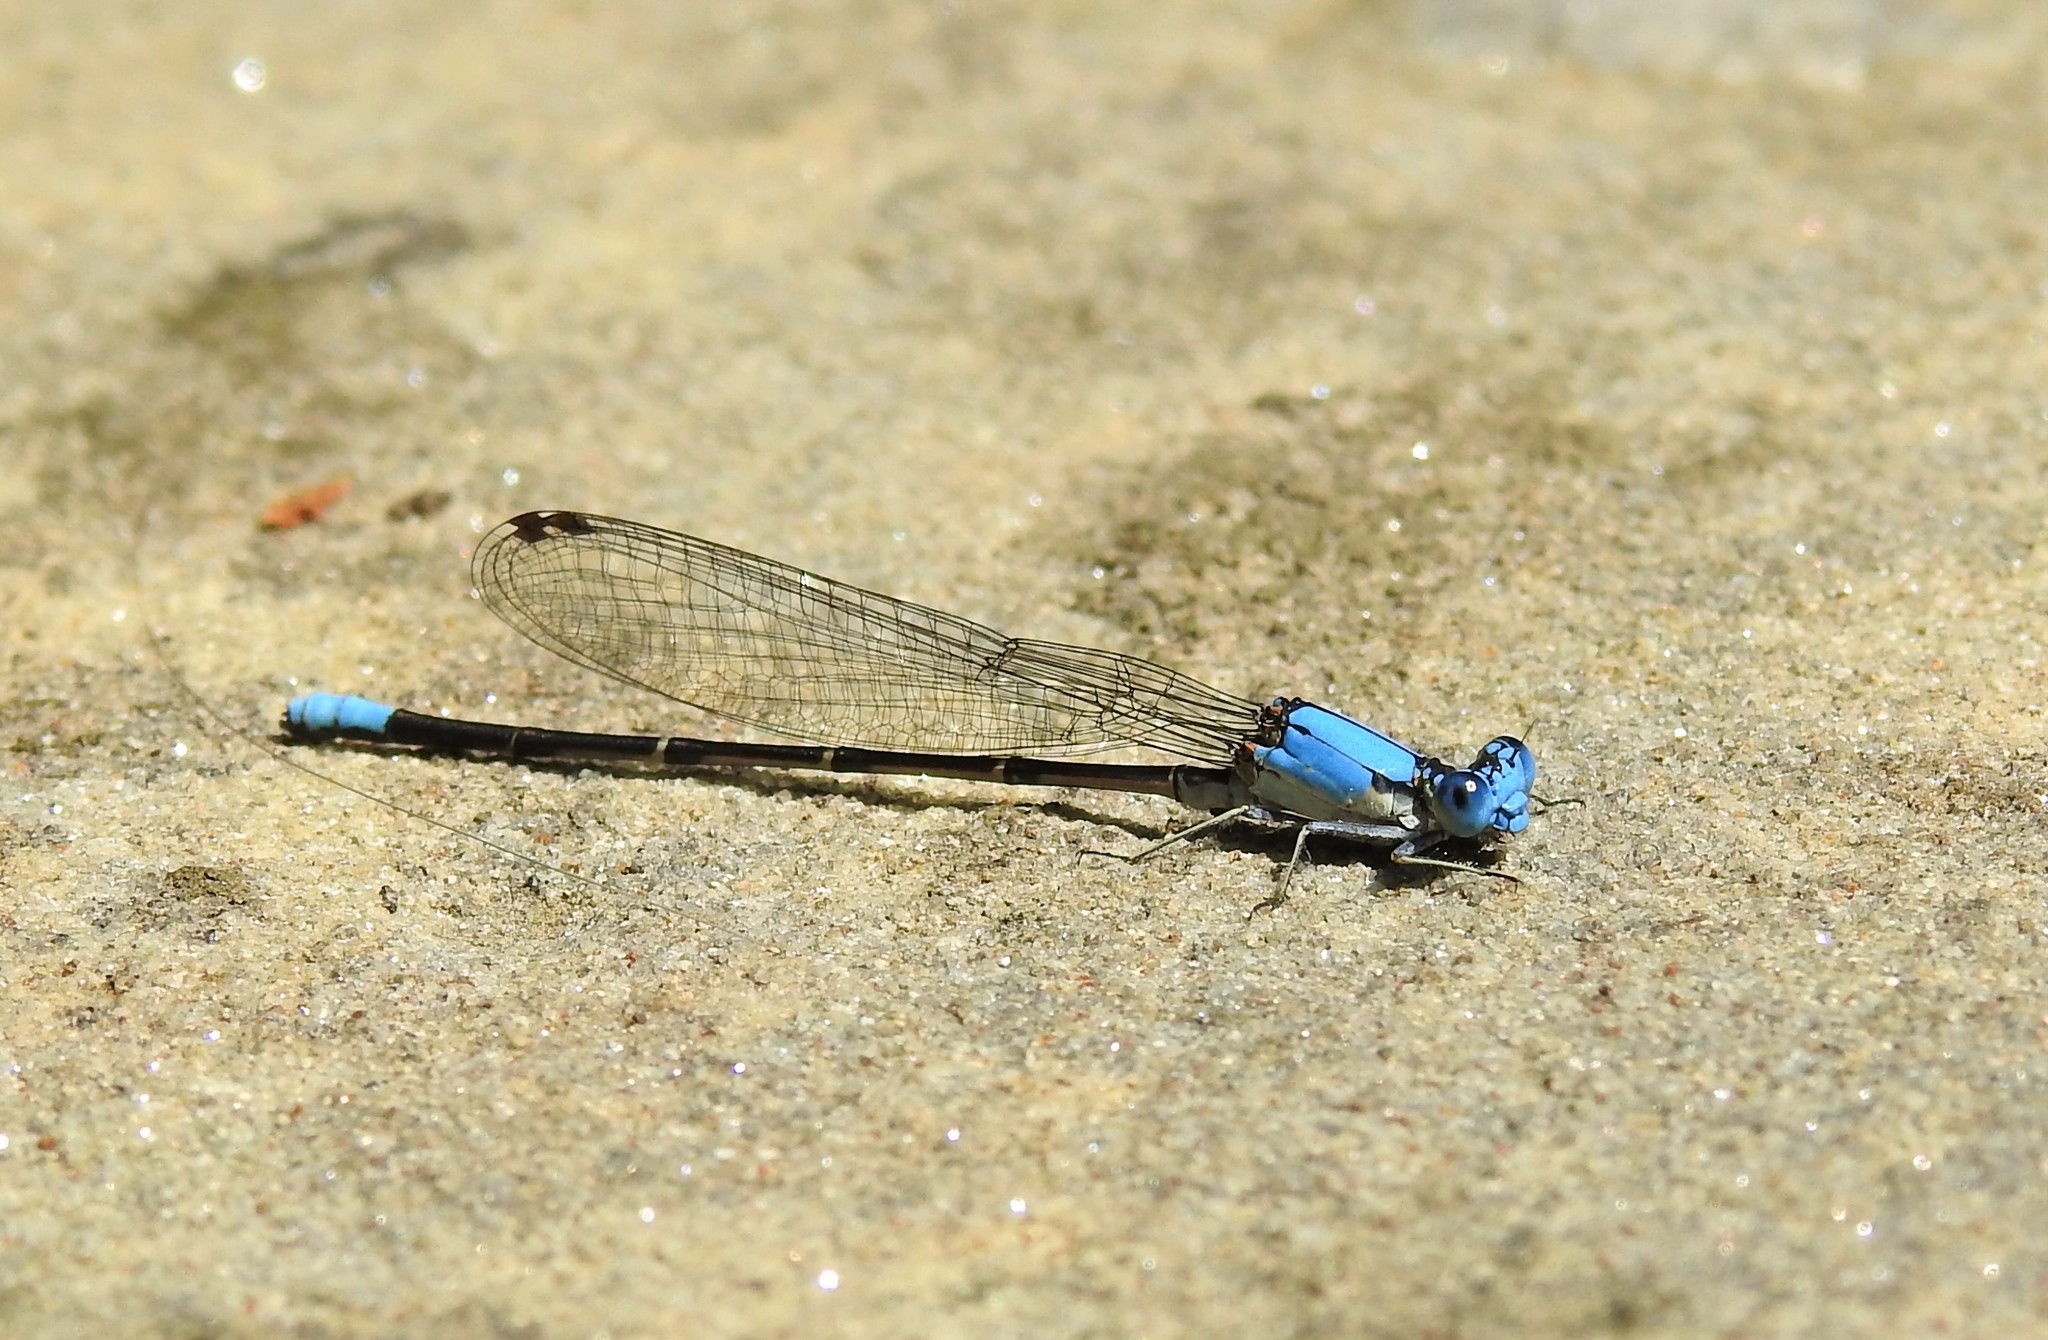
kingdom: Animalia
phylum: Arthropoda
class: Insecta
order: Odonata
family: Coenagrionidae
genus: Argia
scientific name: Argia apicalis
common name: Blue-fronted dancer
